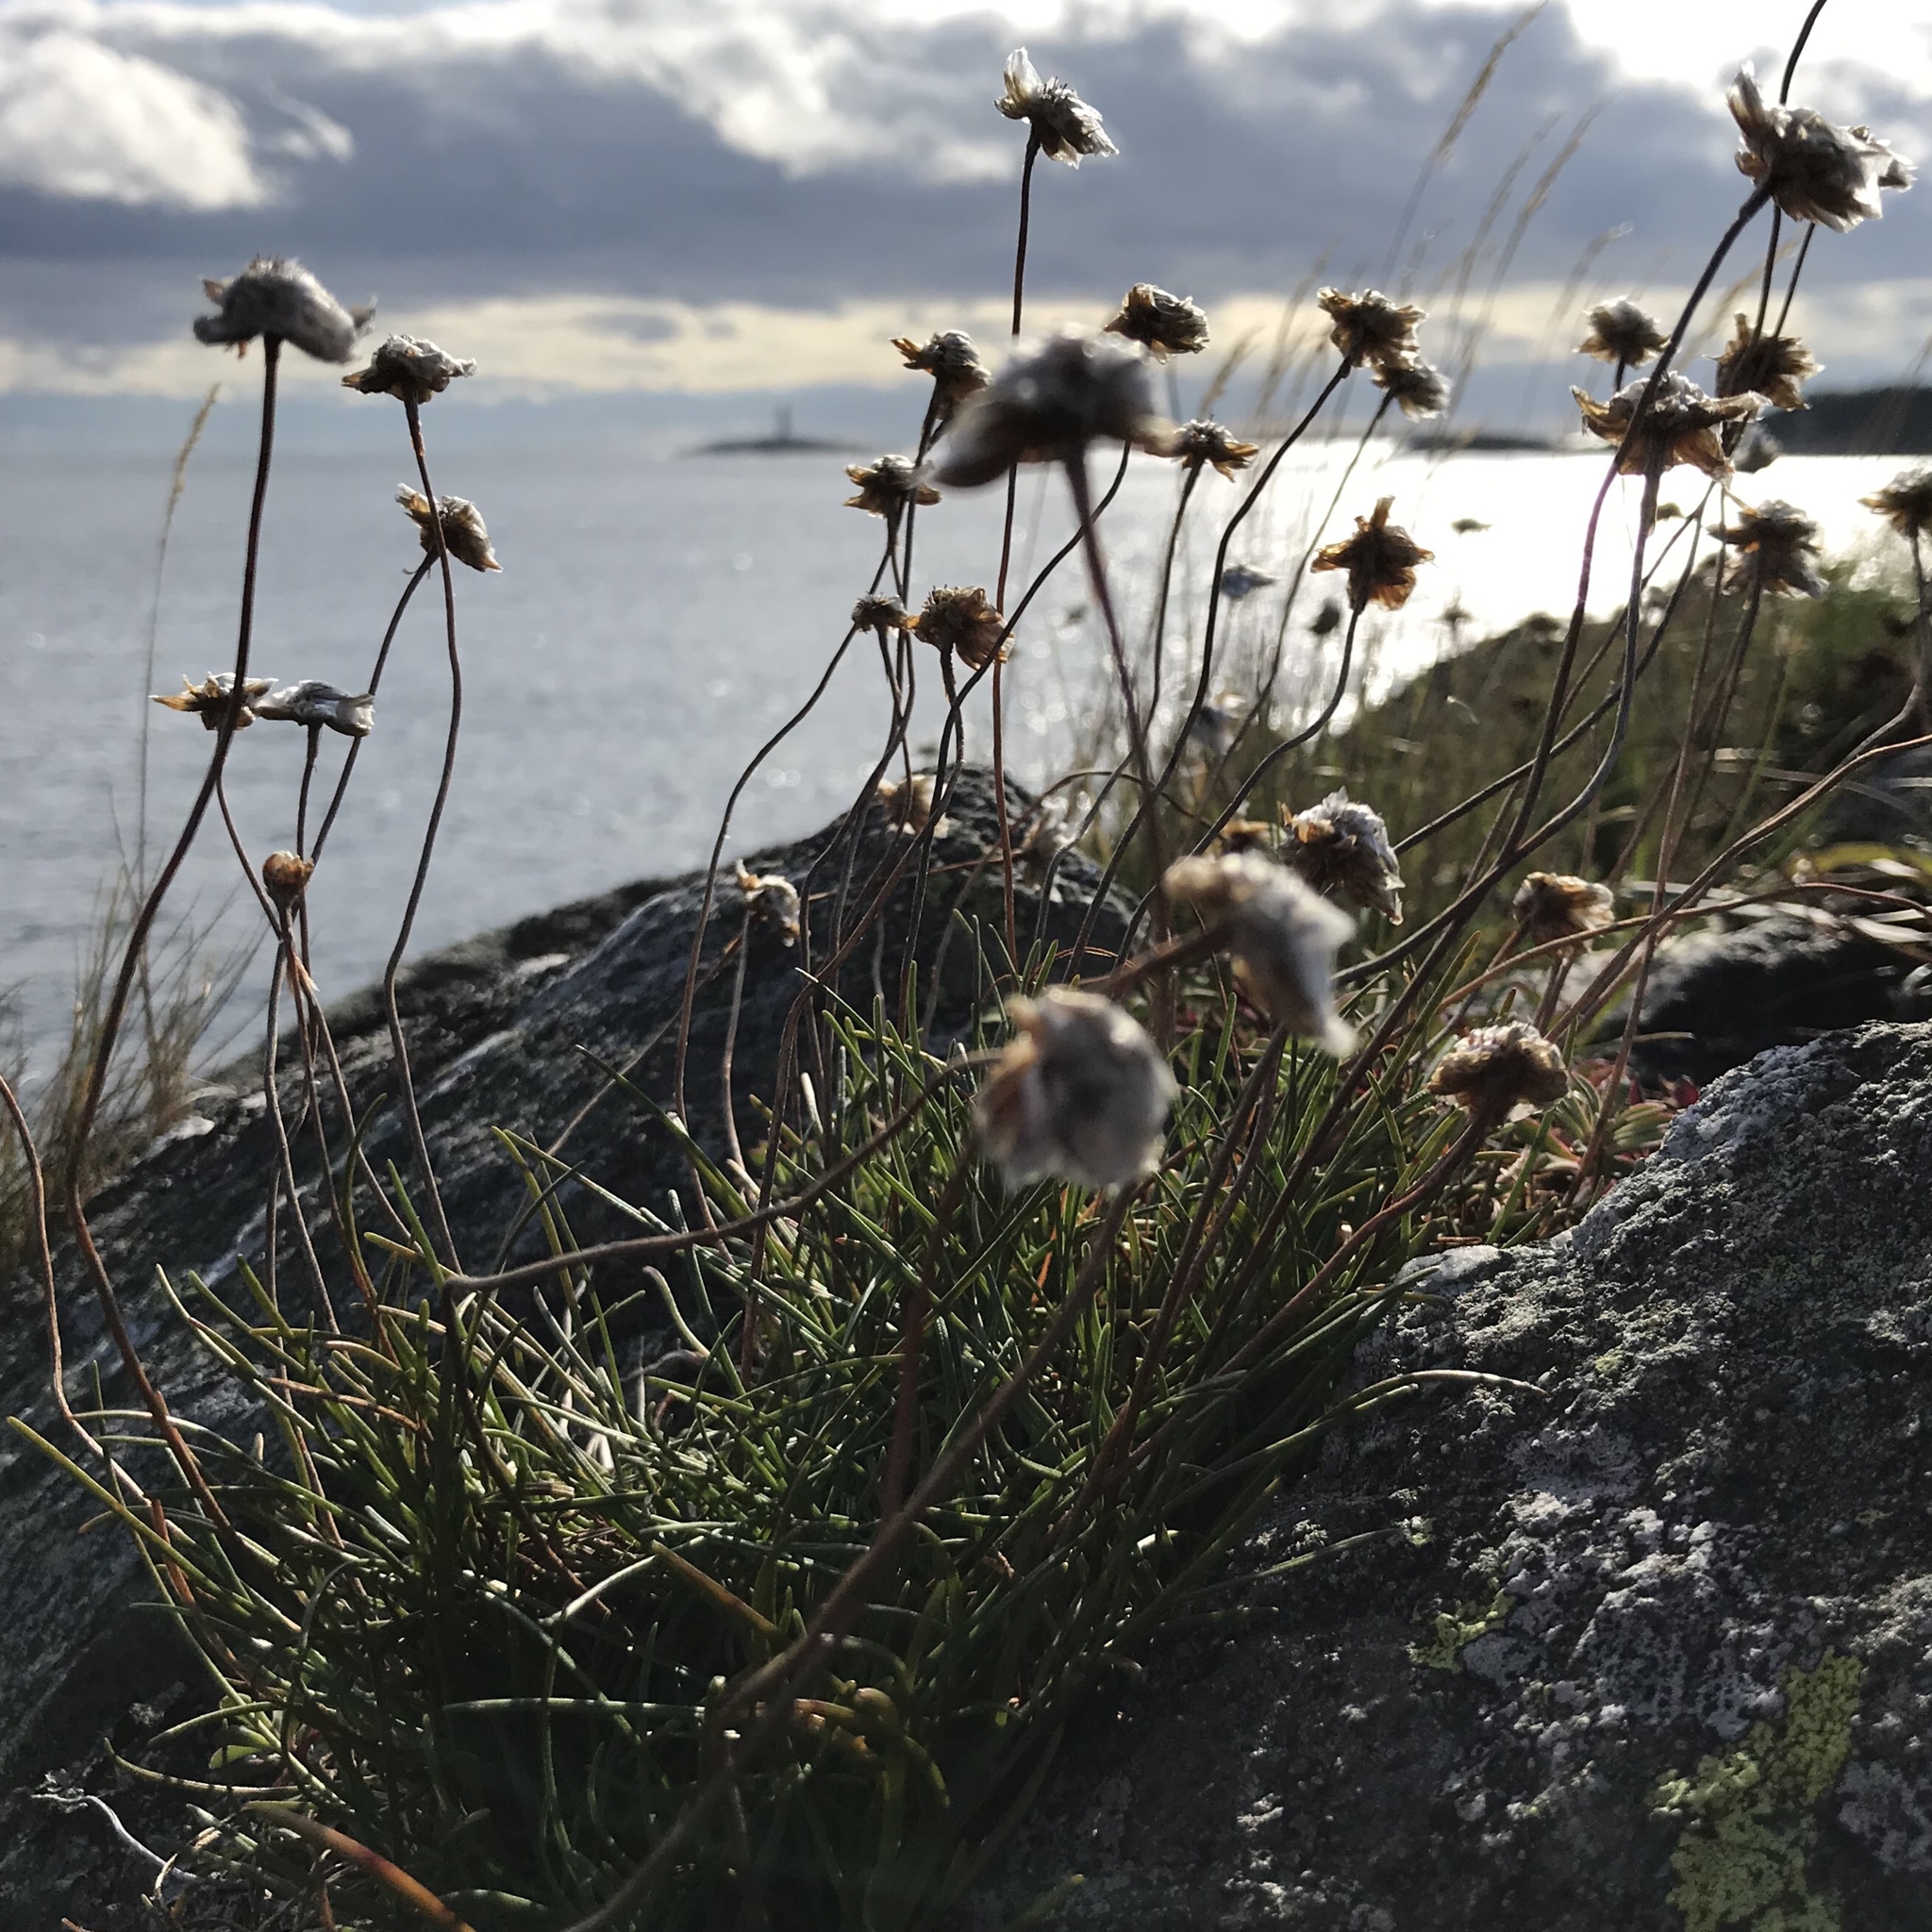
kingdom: Plantae
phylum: Tracheophyta
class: Magnoliopsida
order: Caryophyllales
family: Plumbaginaceae
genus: Armeria
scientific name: Armeria maritima
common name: Thrift
